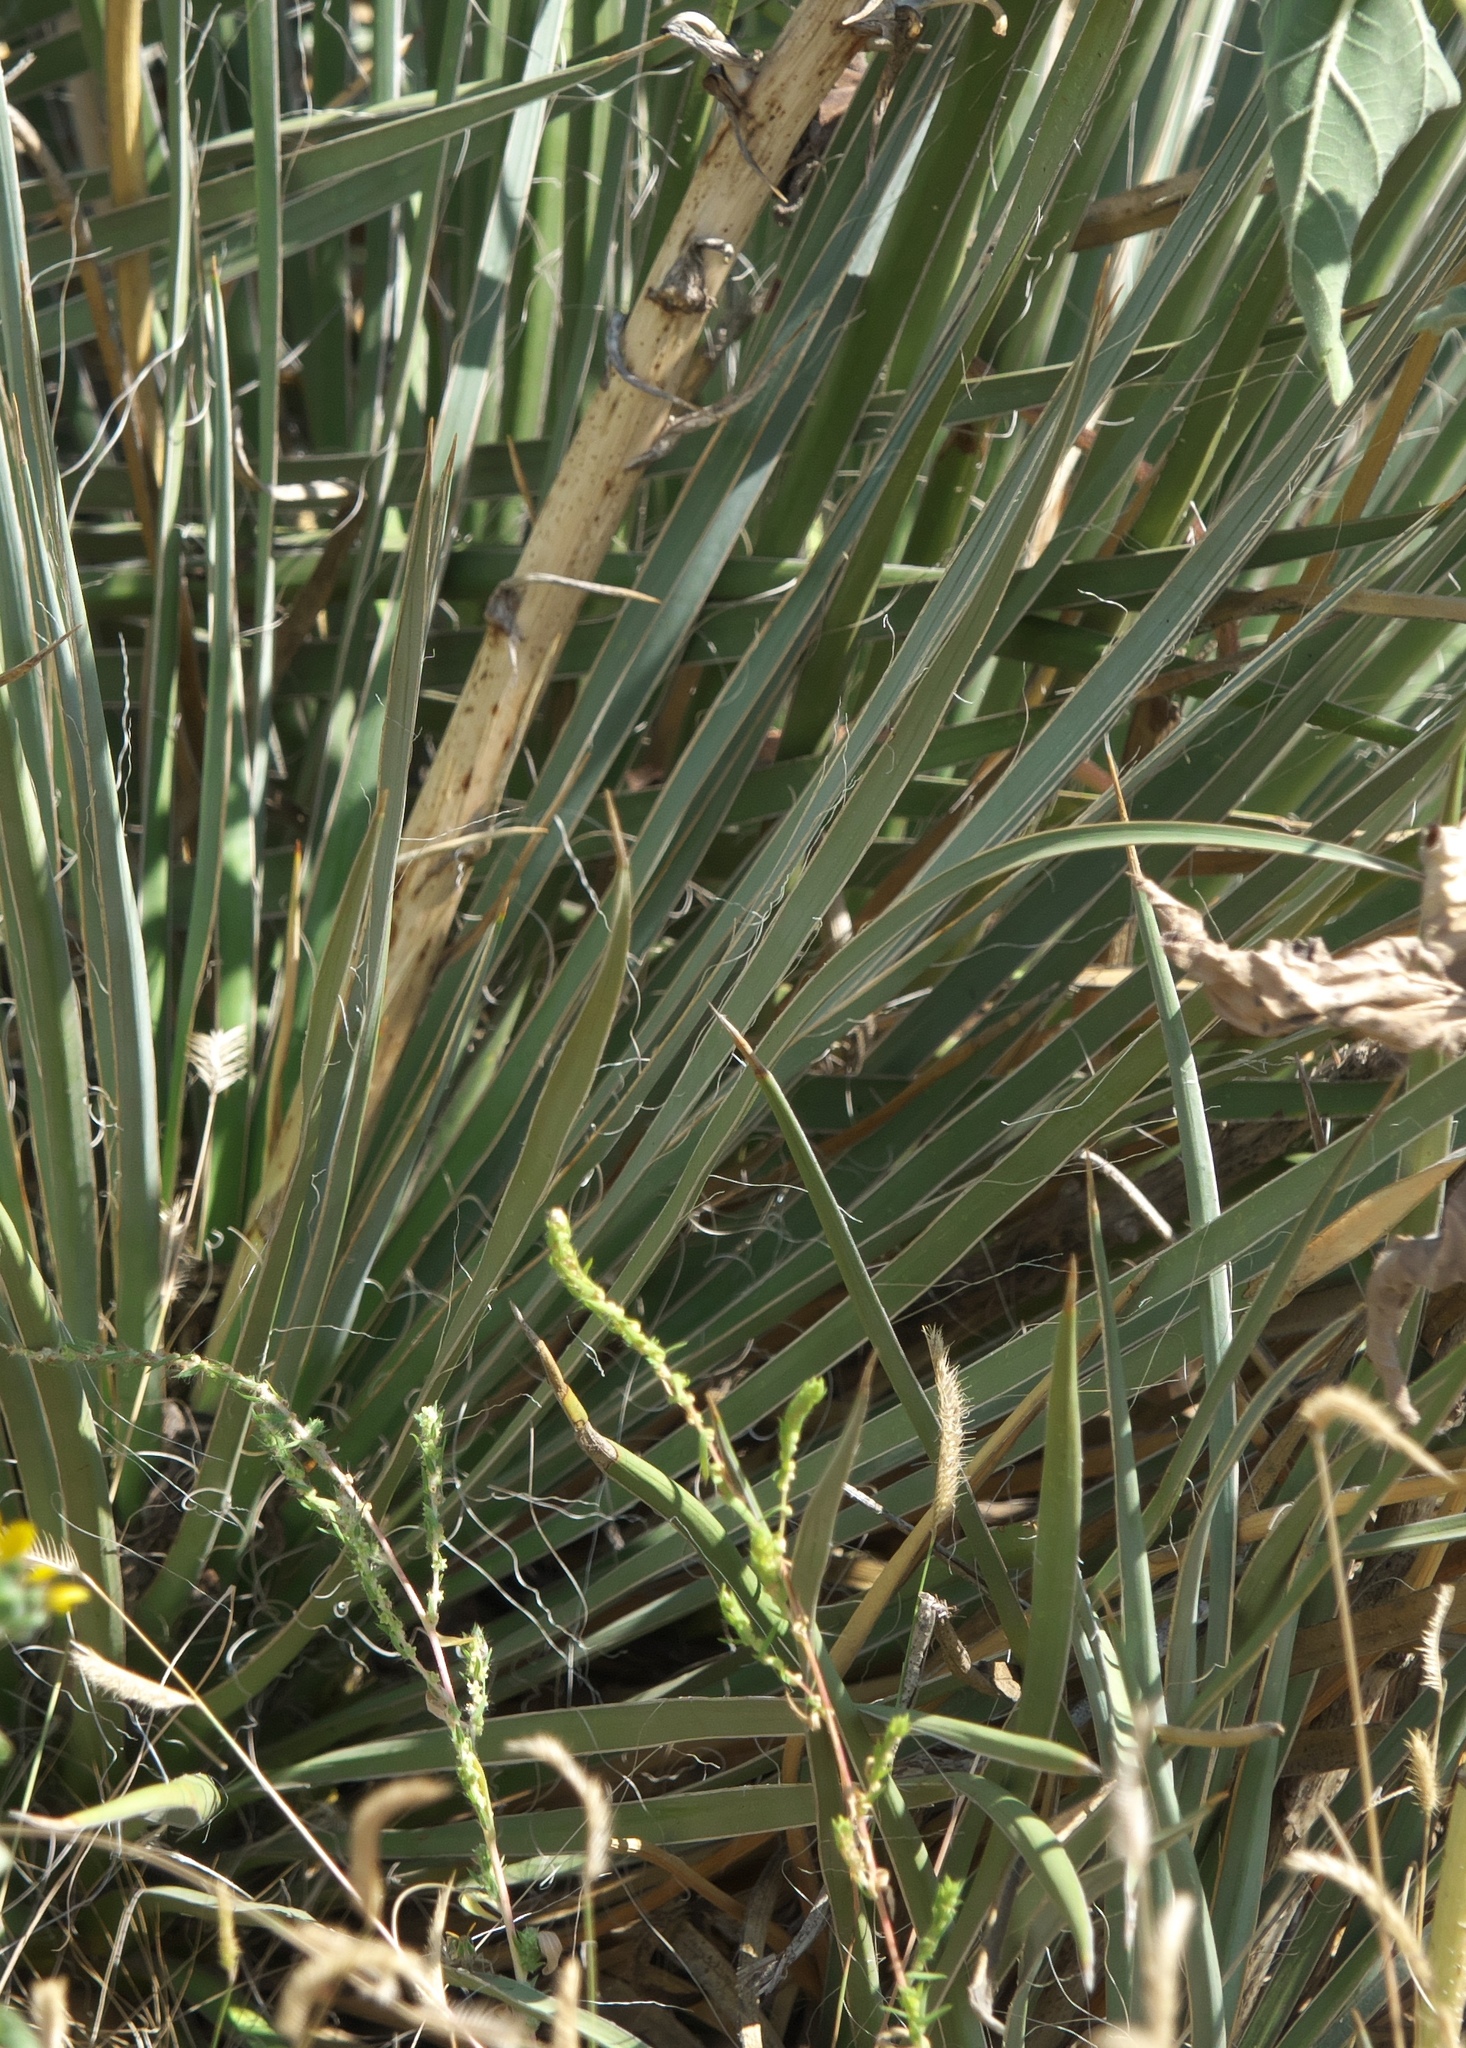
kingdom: Plantae
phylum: Tracheophyta
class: Liliopsida
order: Asparagales
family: Asparagaceae
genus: Yucca
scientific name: Yucca glauca
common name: Great plains yucca
